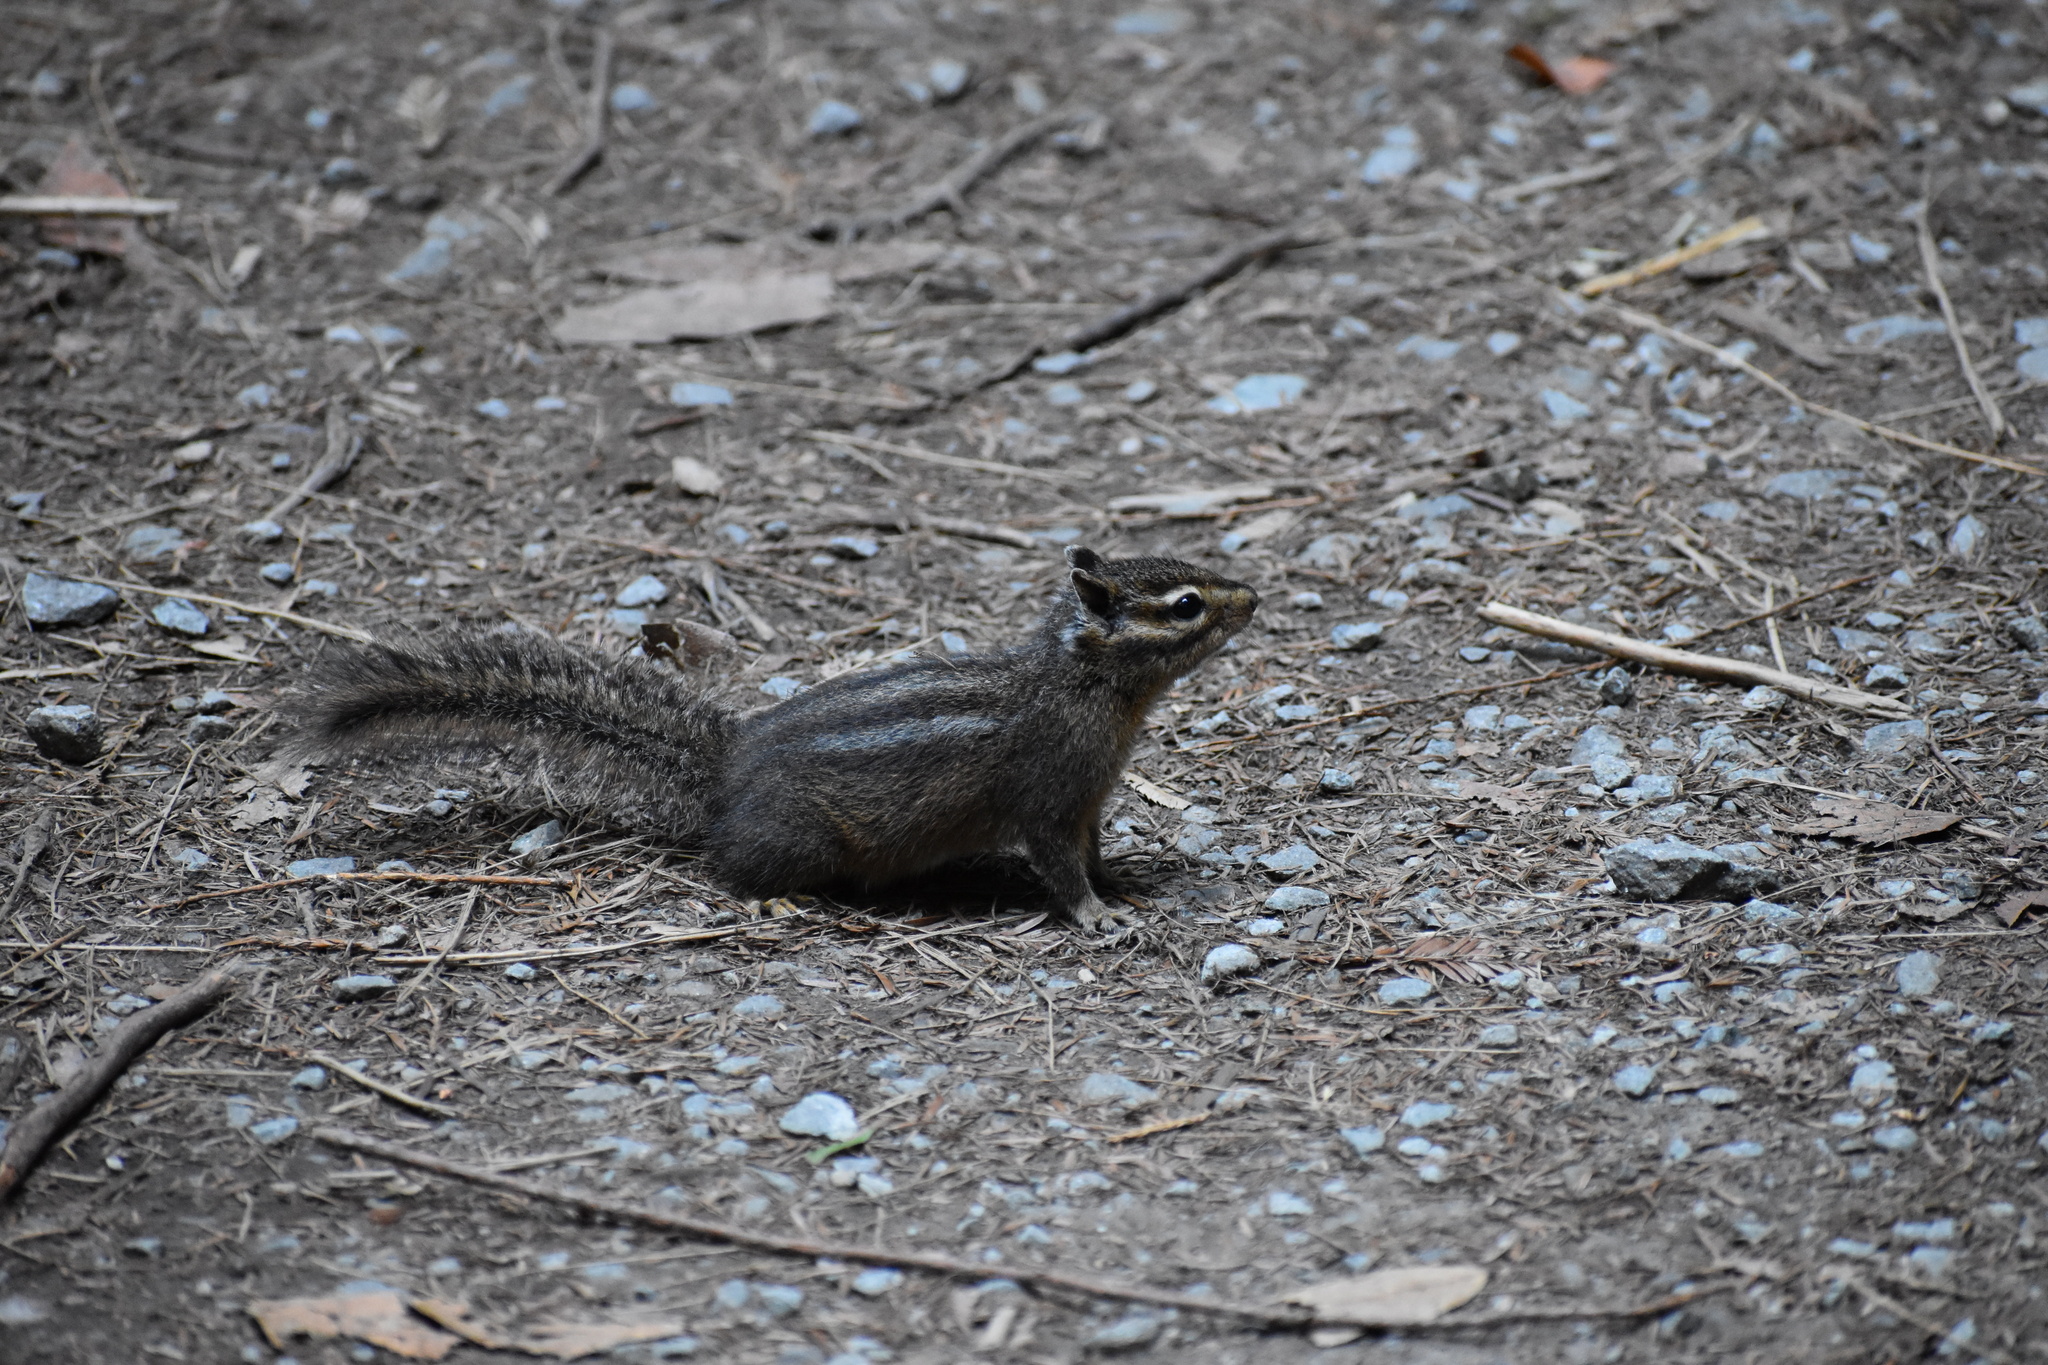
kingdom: Animalia
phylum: Chordata
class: Mammalia
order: Rodentia
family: Sciuridae
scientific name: Sciuridae
